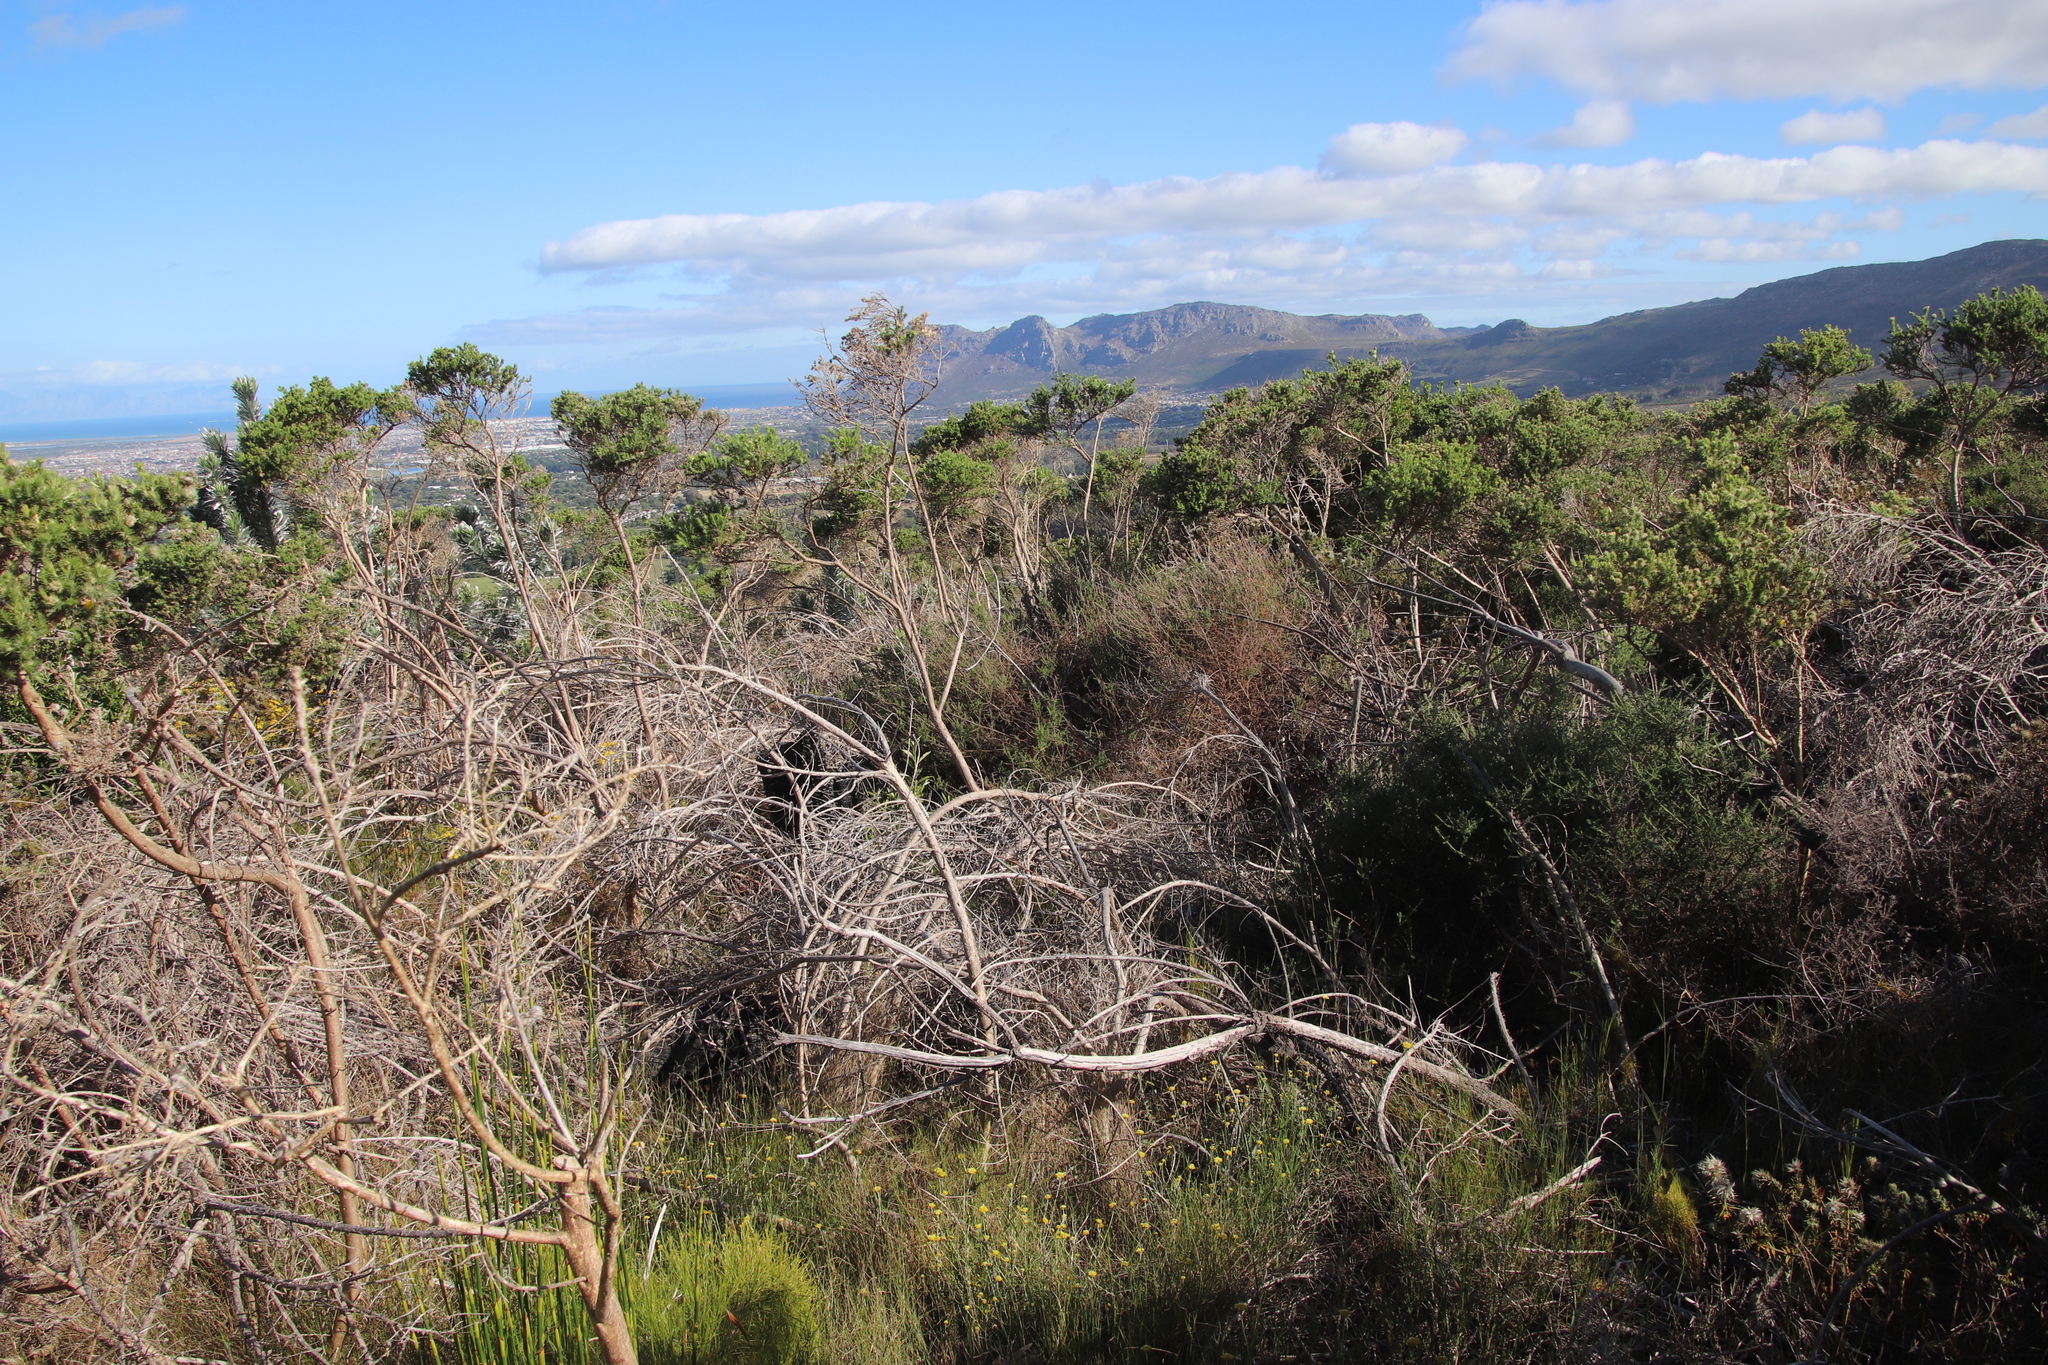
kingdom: Plantae
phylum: Tracheophyta
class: Magnoliopsida
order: Fabales
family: Fabaceae
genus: Aspalathus
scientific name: Aspalathus chenopoda
